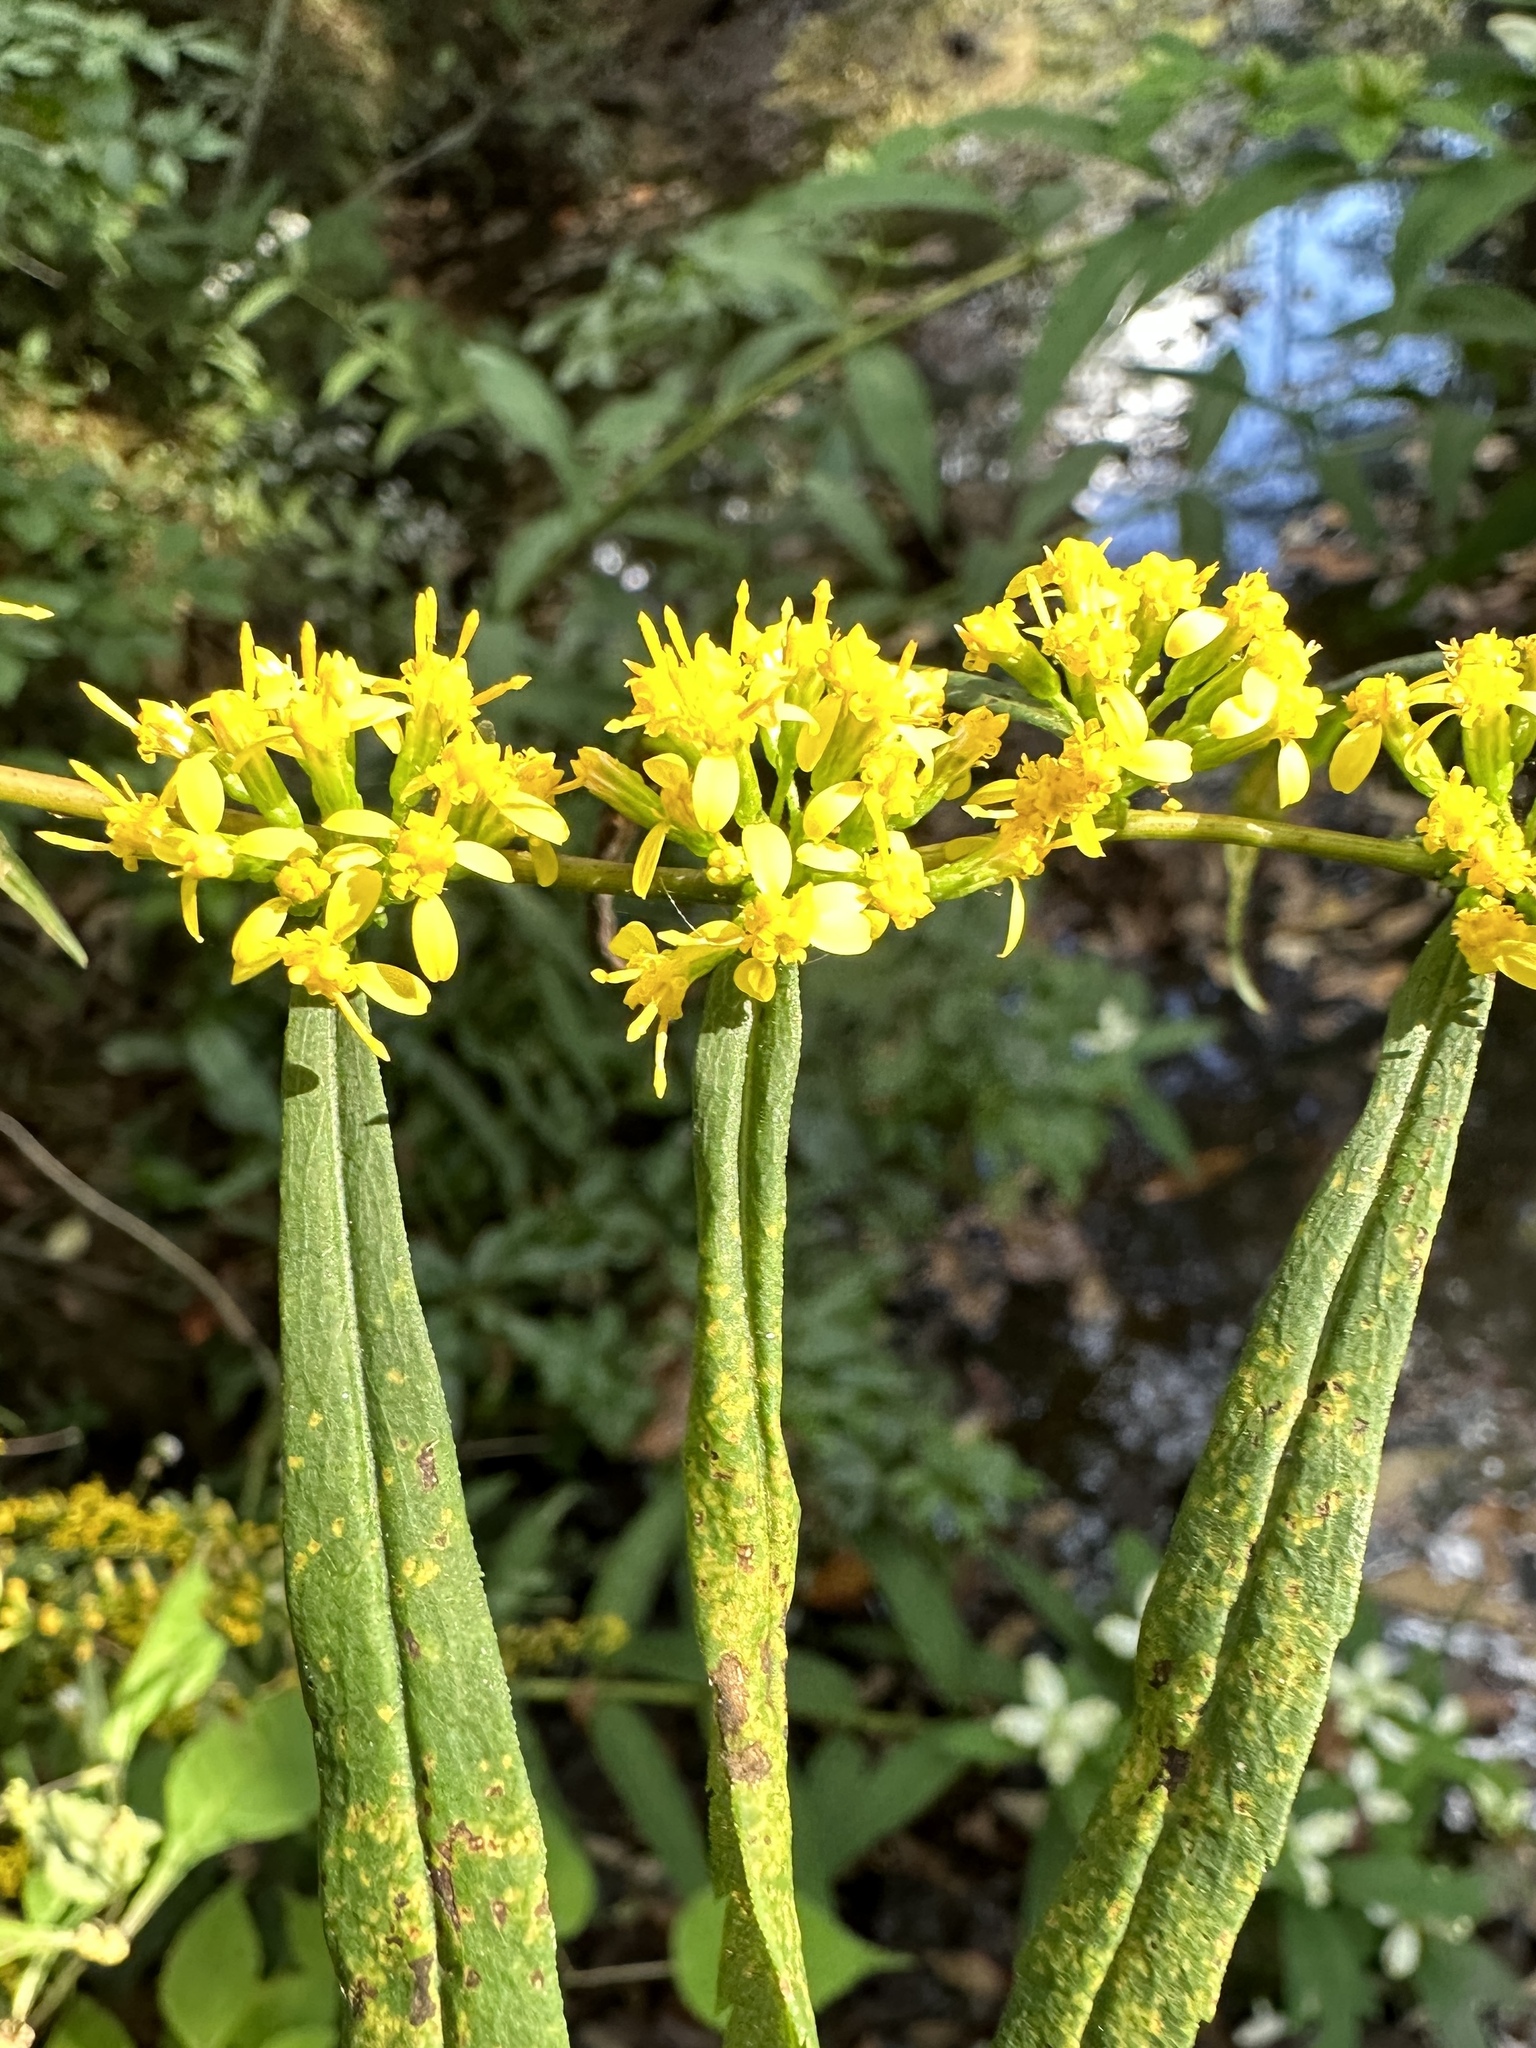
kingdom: Plantae
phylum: Tracheophyta
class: Magnoliopsida
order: Asterales
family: Asteraceae
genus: Solidago
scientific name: Solidago caesia
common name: Woodland goldenrod
